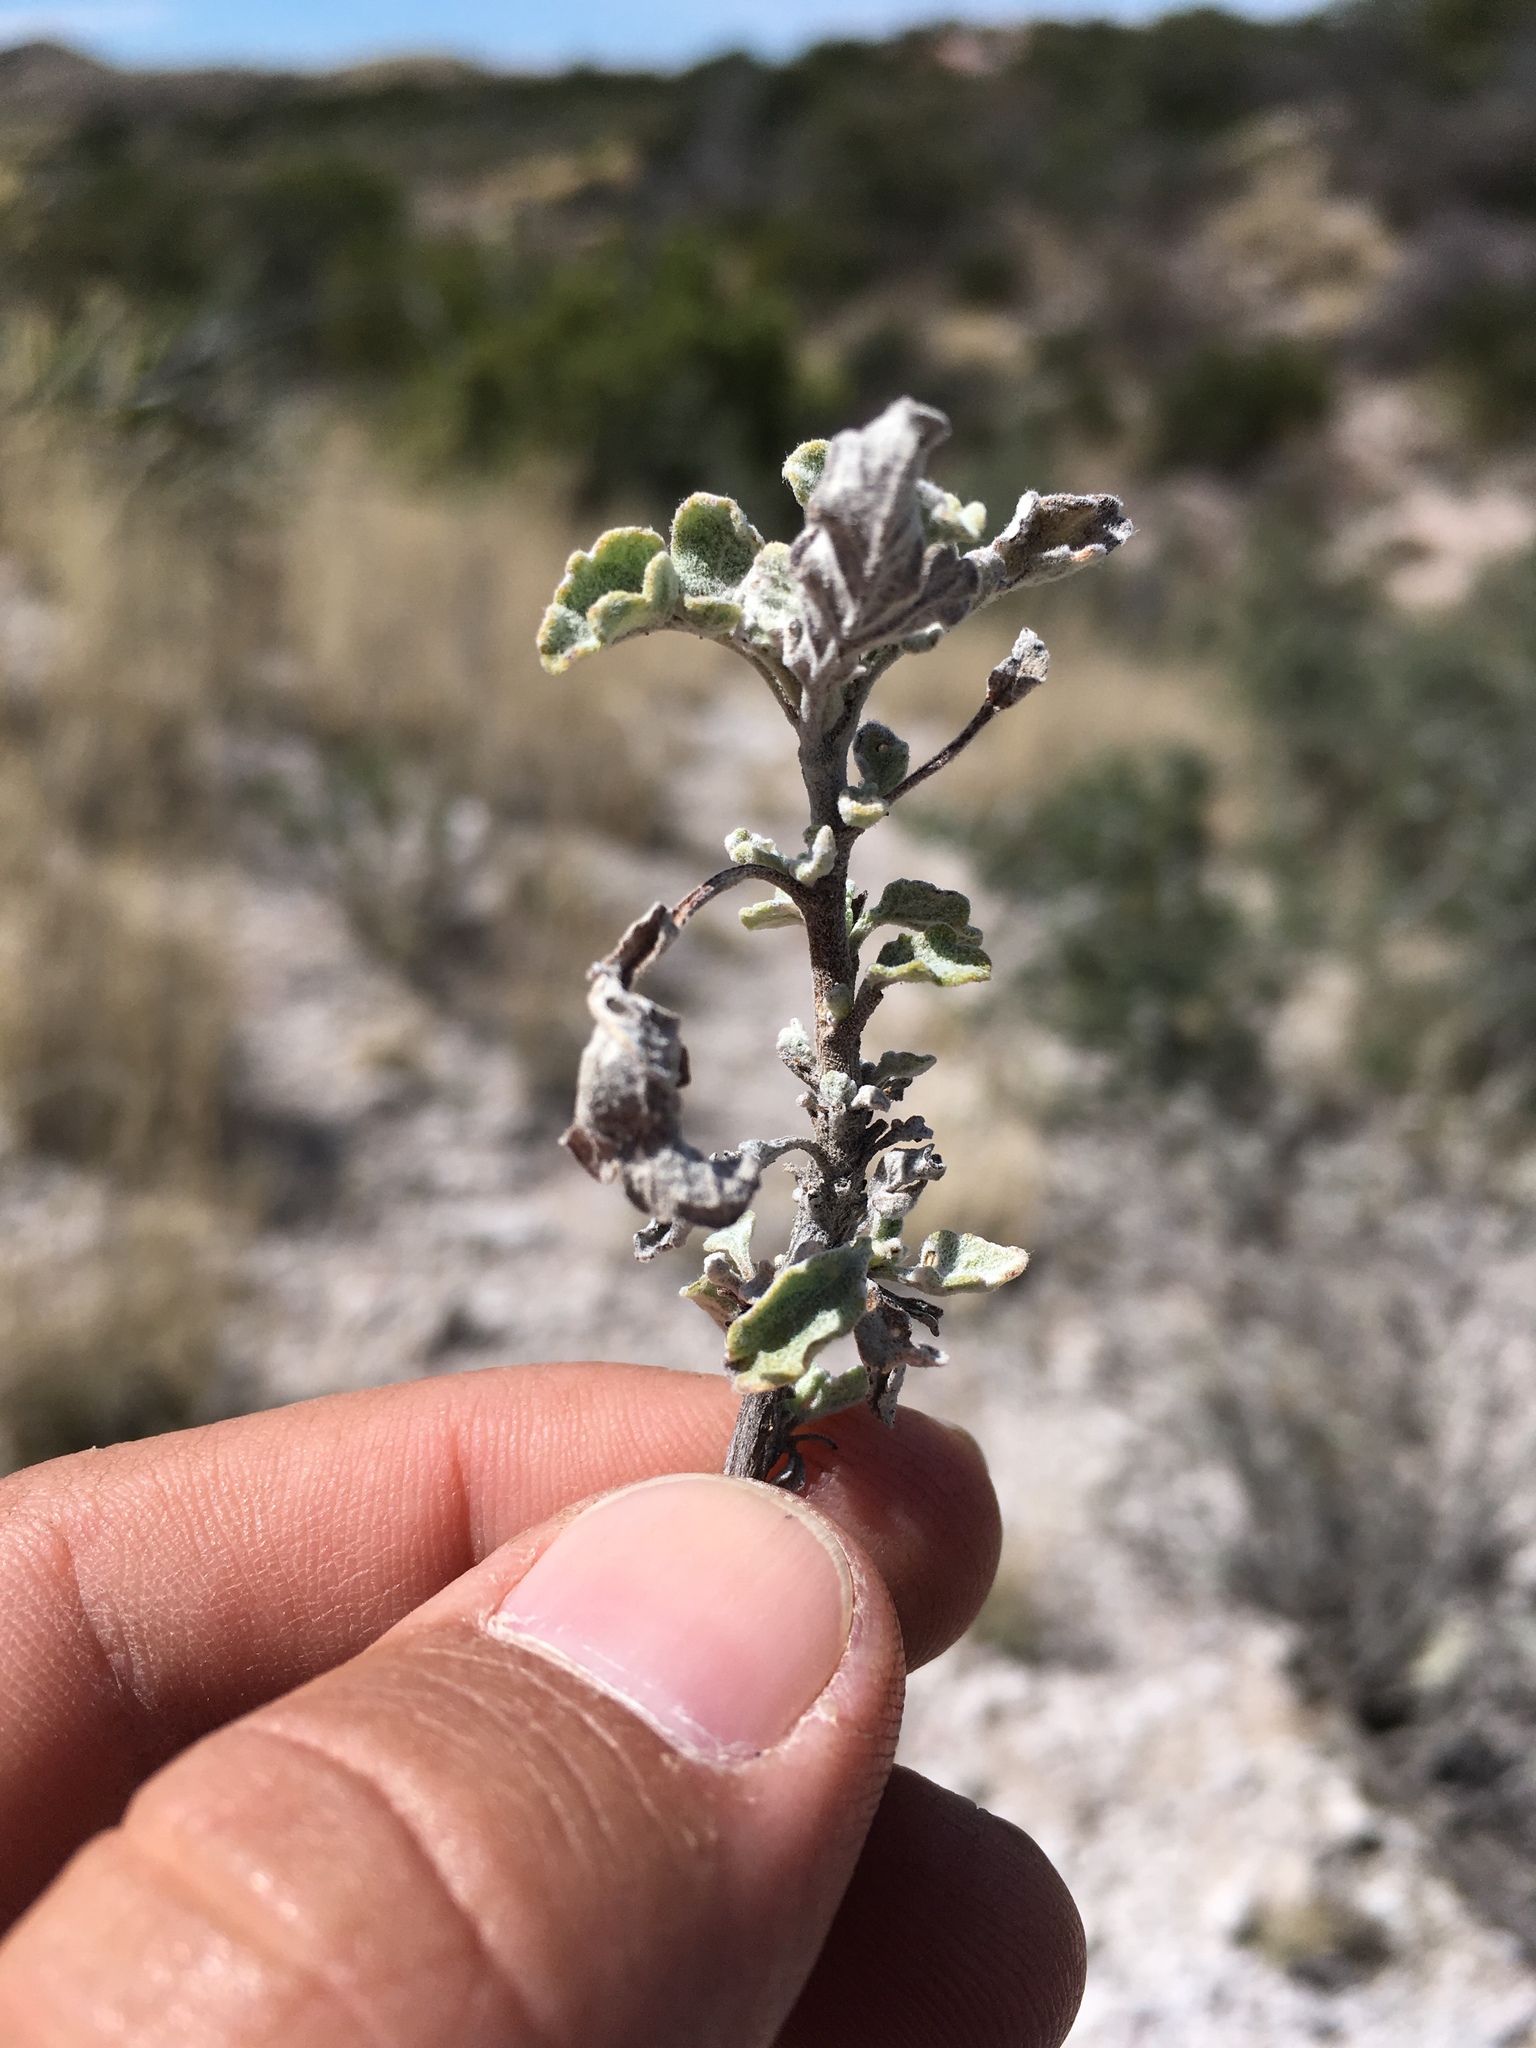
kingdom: Plantae
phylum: Tracheophyta
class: Magnoliopsida
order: Asterales
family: Asteraceae
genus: Parthenium
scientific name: Parthenium incanum
